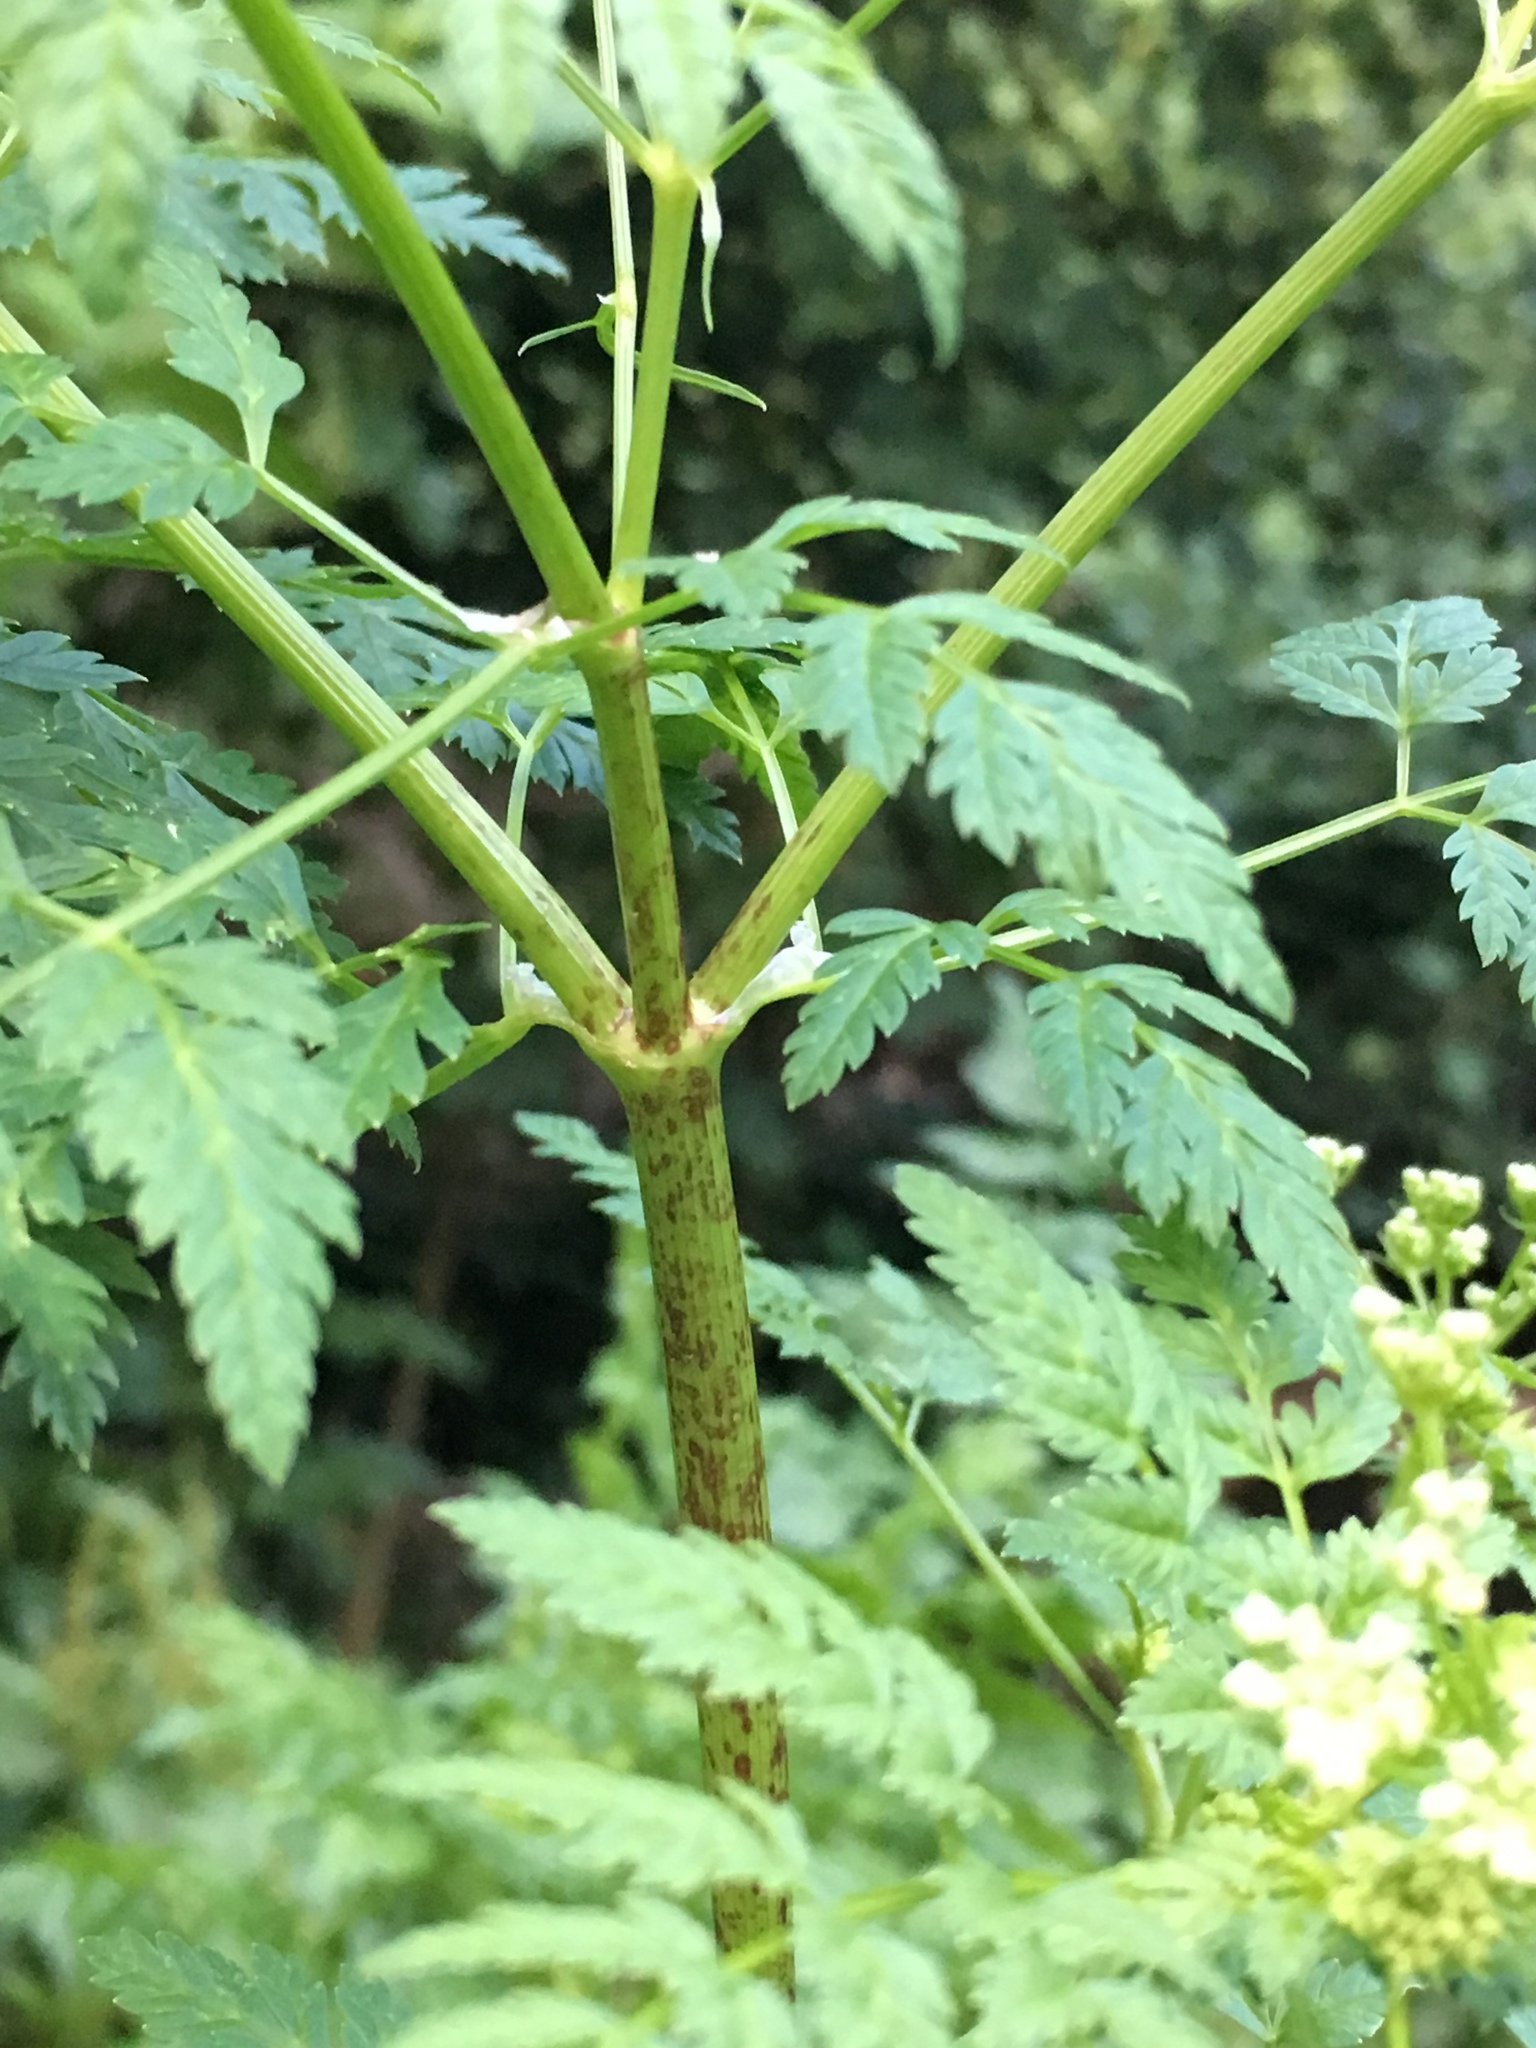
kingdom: Plantae
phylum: Tracheophyta
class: Magnoliopsida
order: Apiales
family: Apiaceae
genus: Conium
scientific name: Conium maculatum
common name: Hemlock
